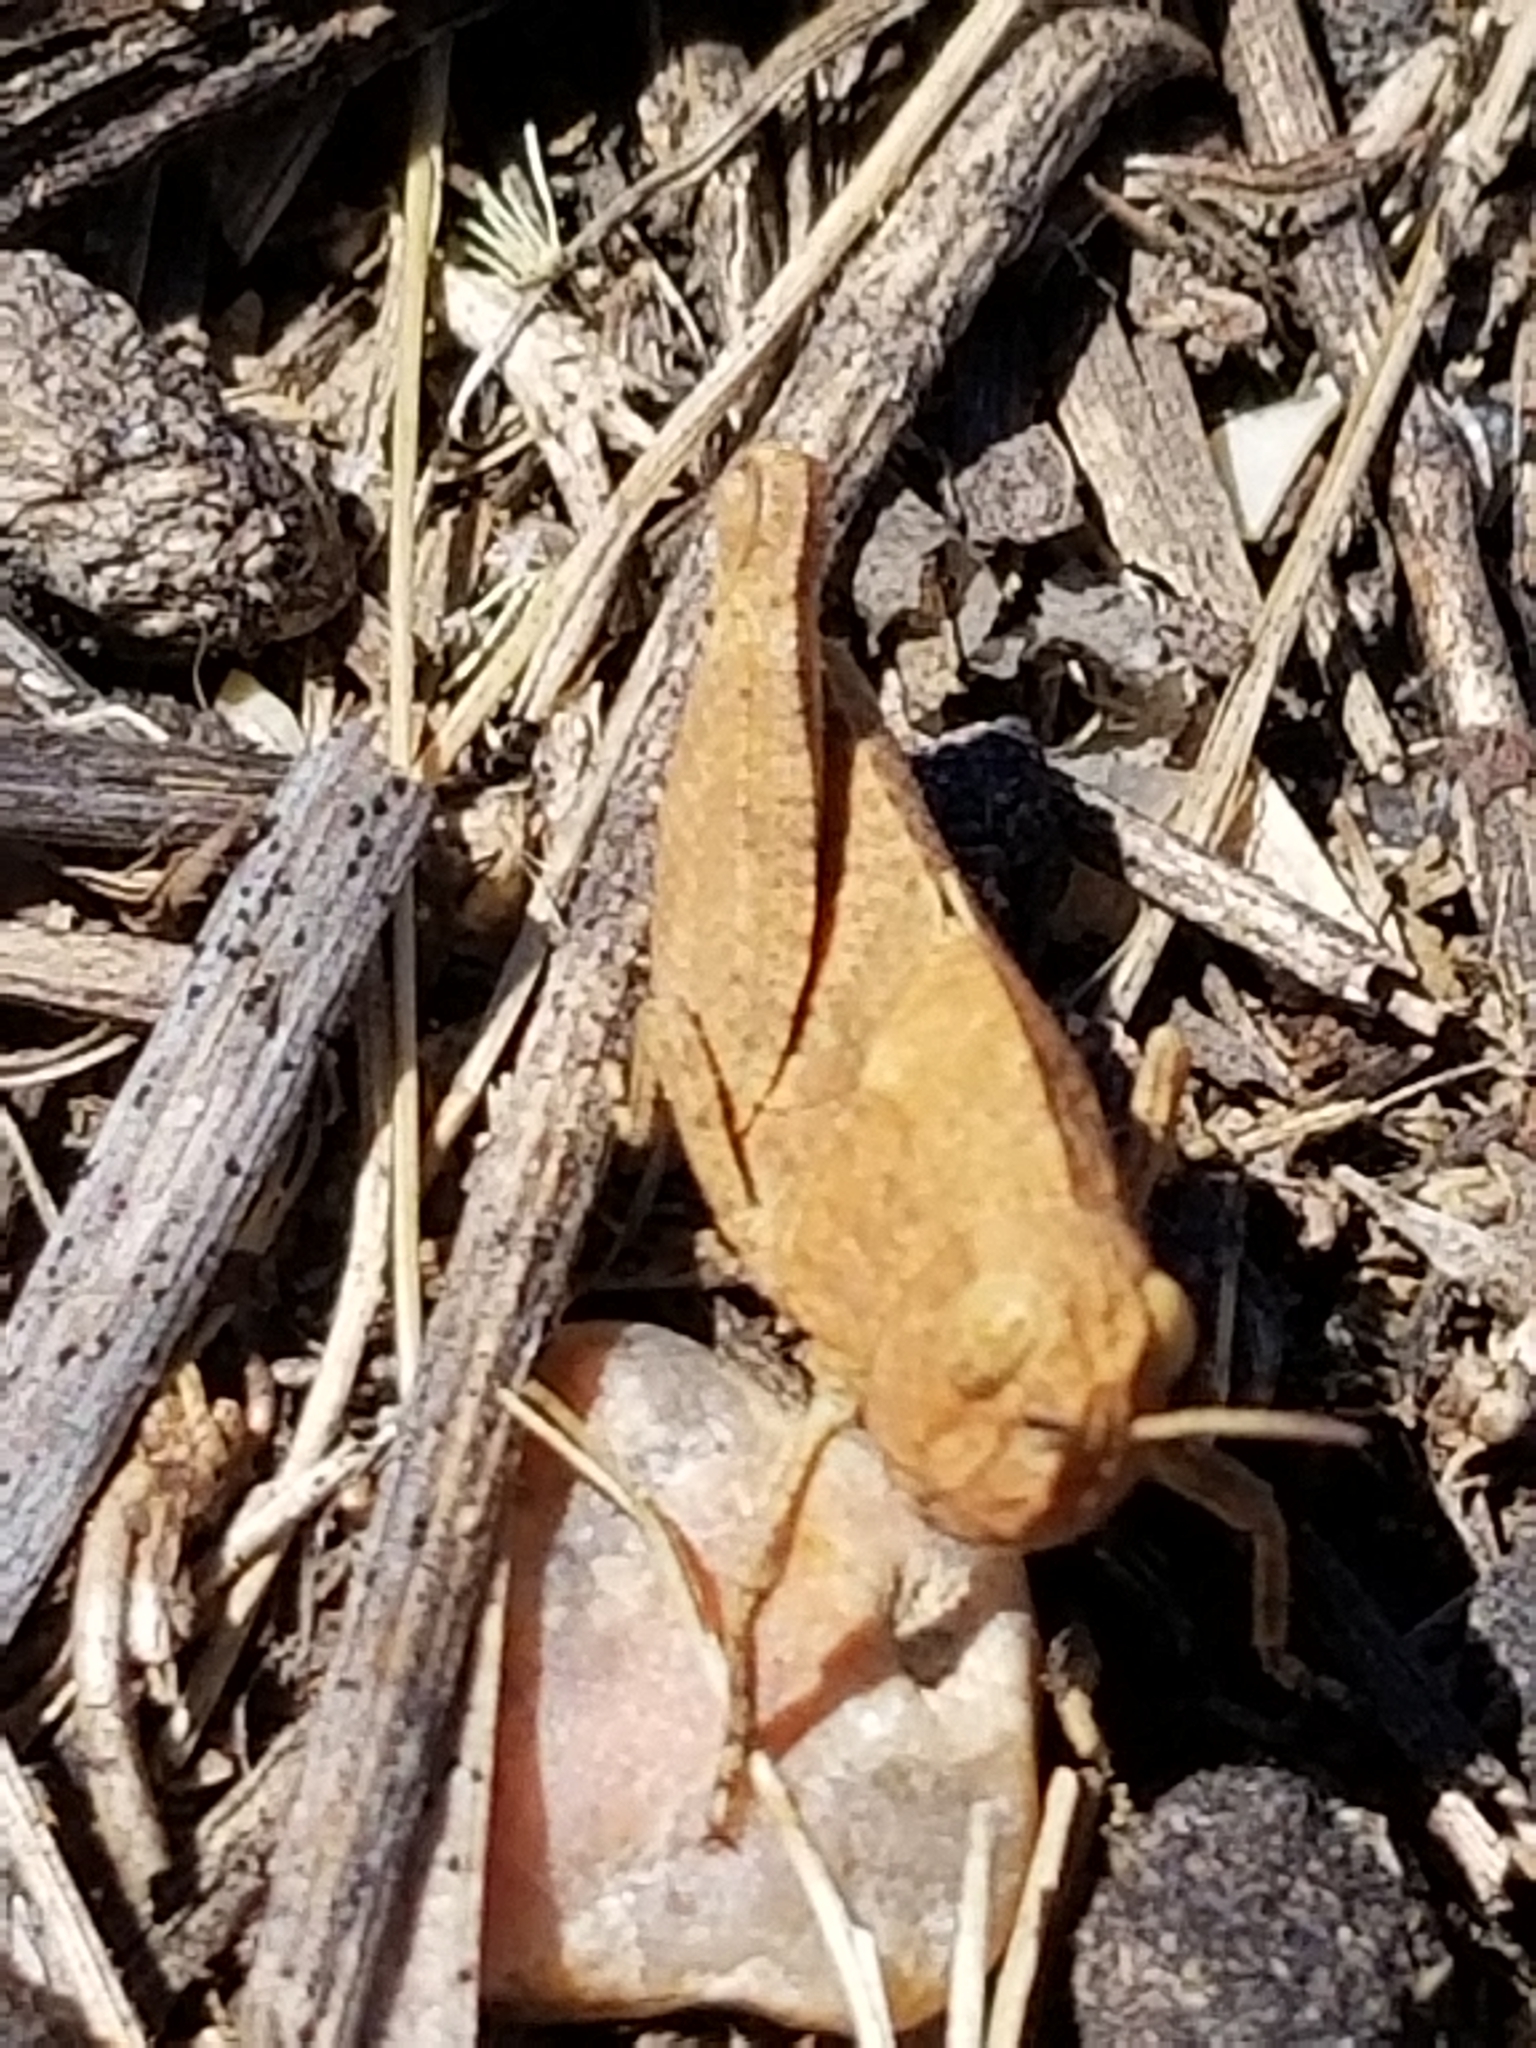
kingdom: Animalia
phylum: Arthropoda
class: Insecta
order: Orthoptera
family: Acrididae
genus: Dissosteira
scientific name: Dissosteira carolina
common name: Carolina grasshopper
